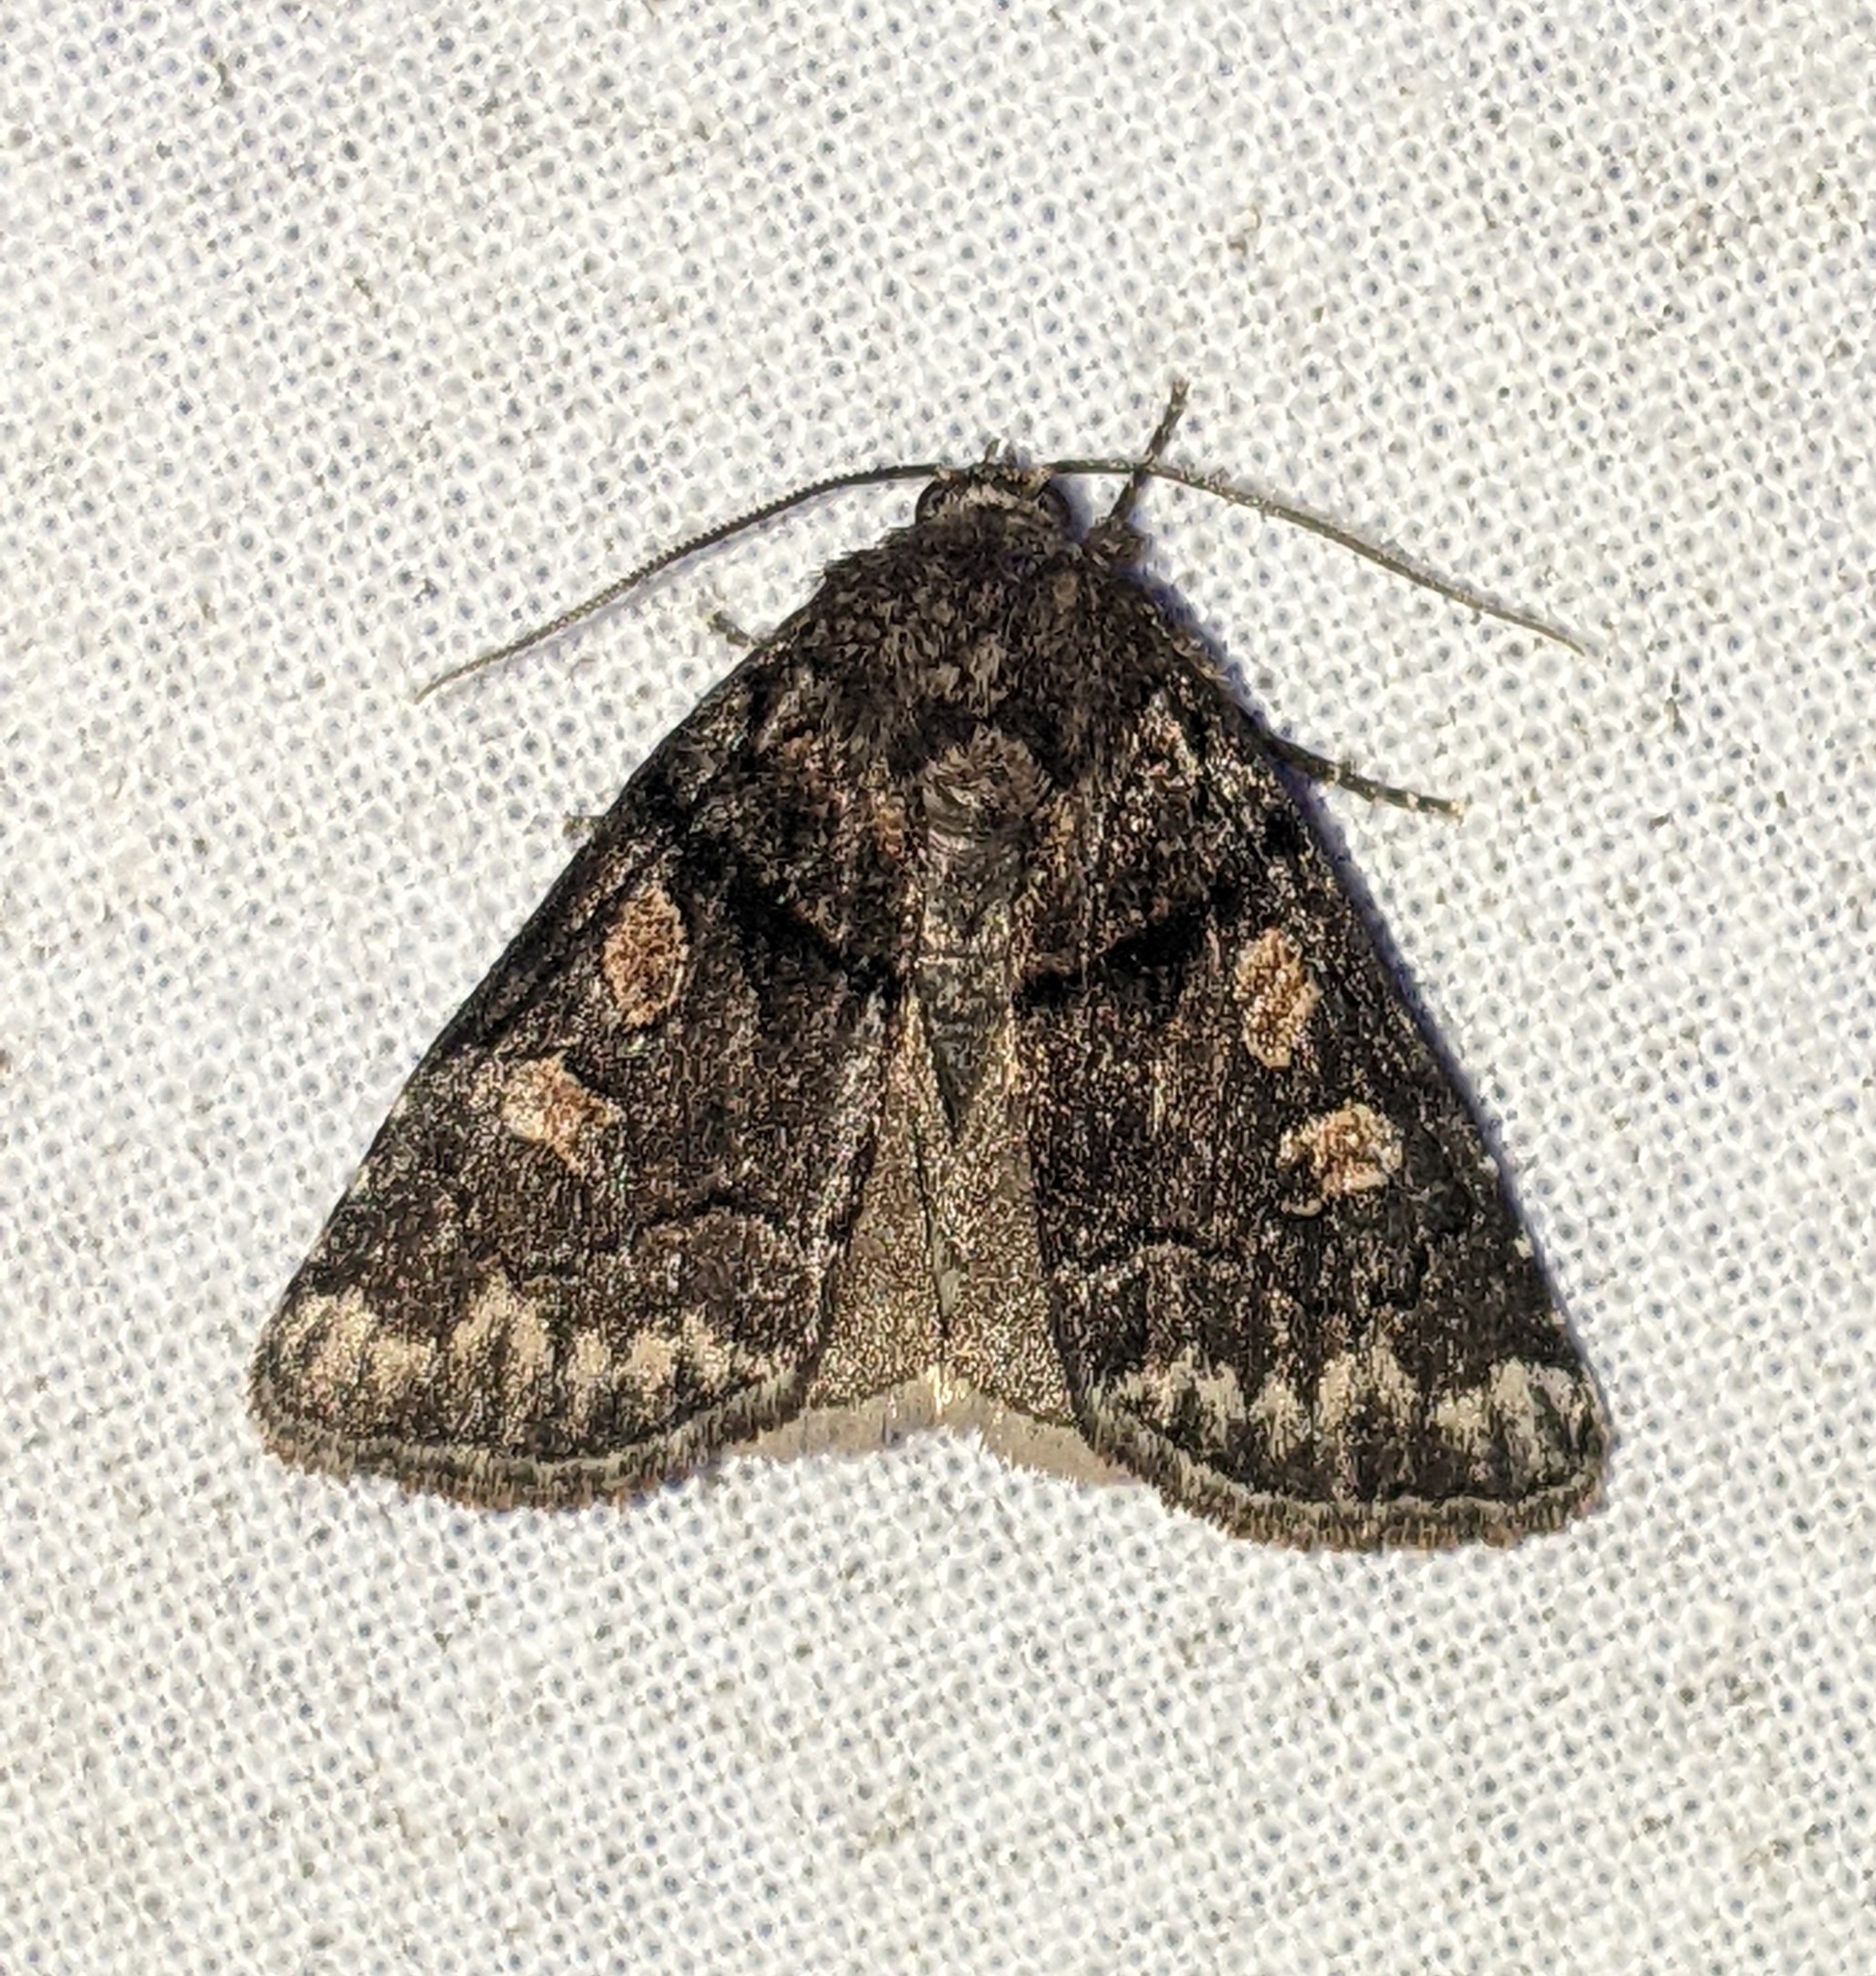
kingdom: Animalia
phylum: Arthropoda
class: Insecta
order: Lepidoptera
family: Noctuidae
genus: Cosmia
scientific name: Cosmia praeacuta
